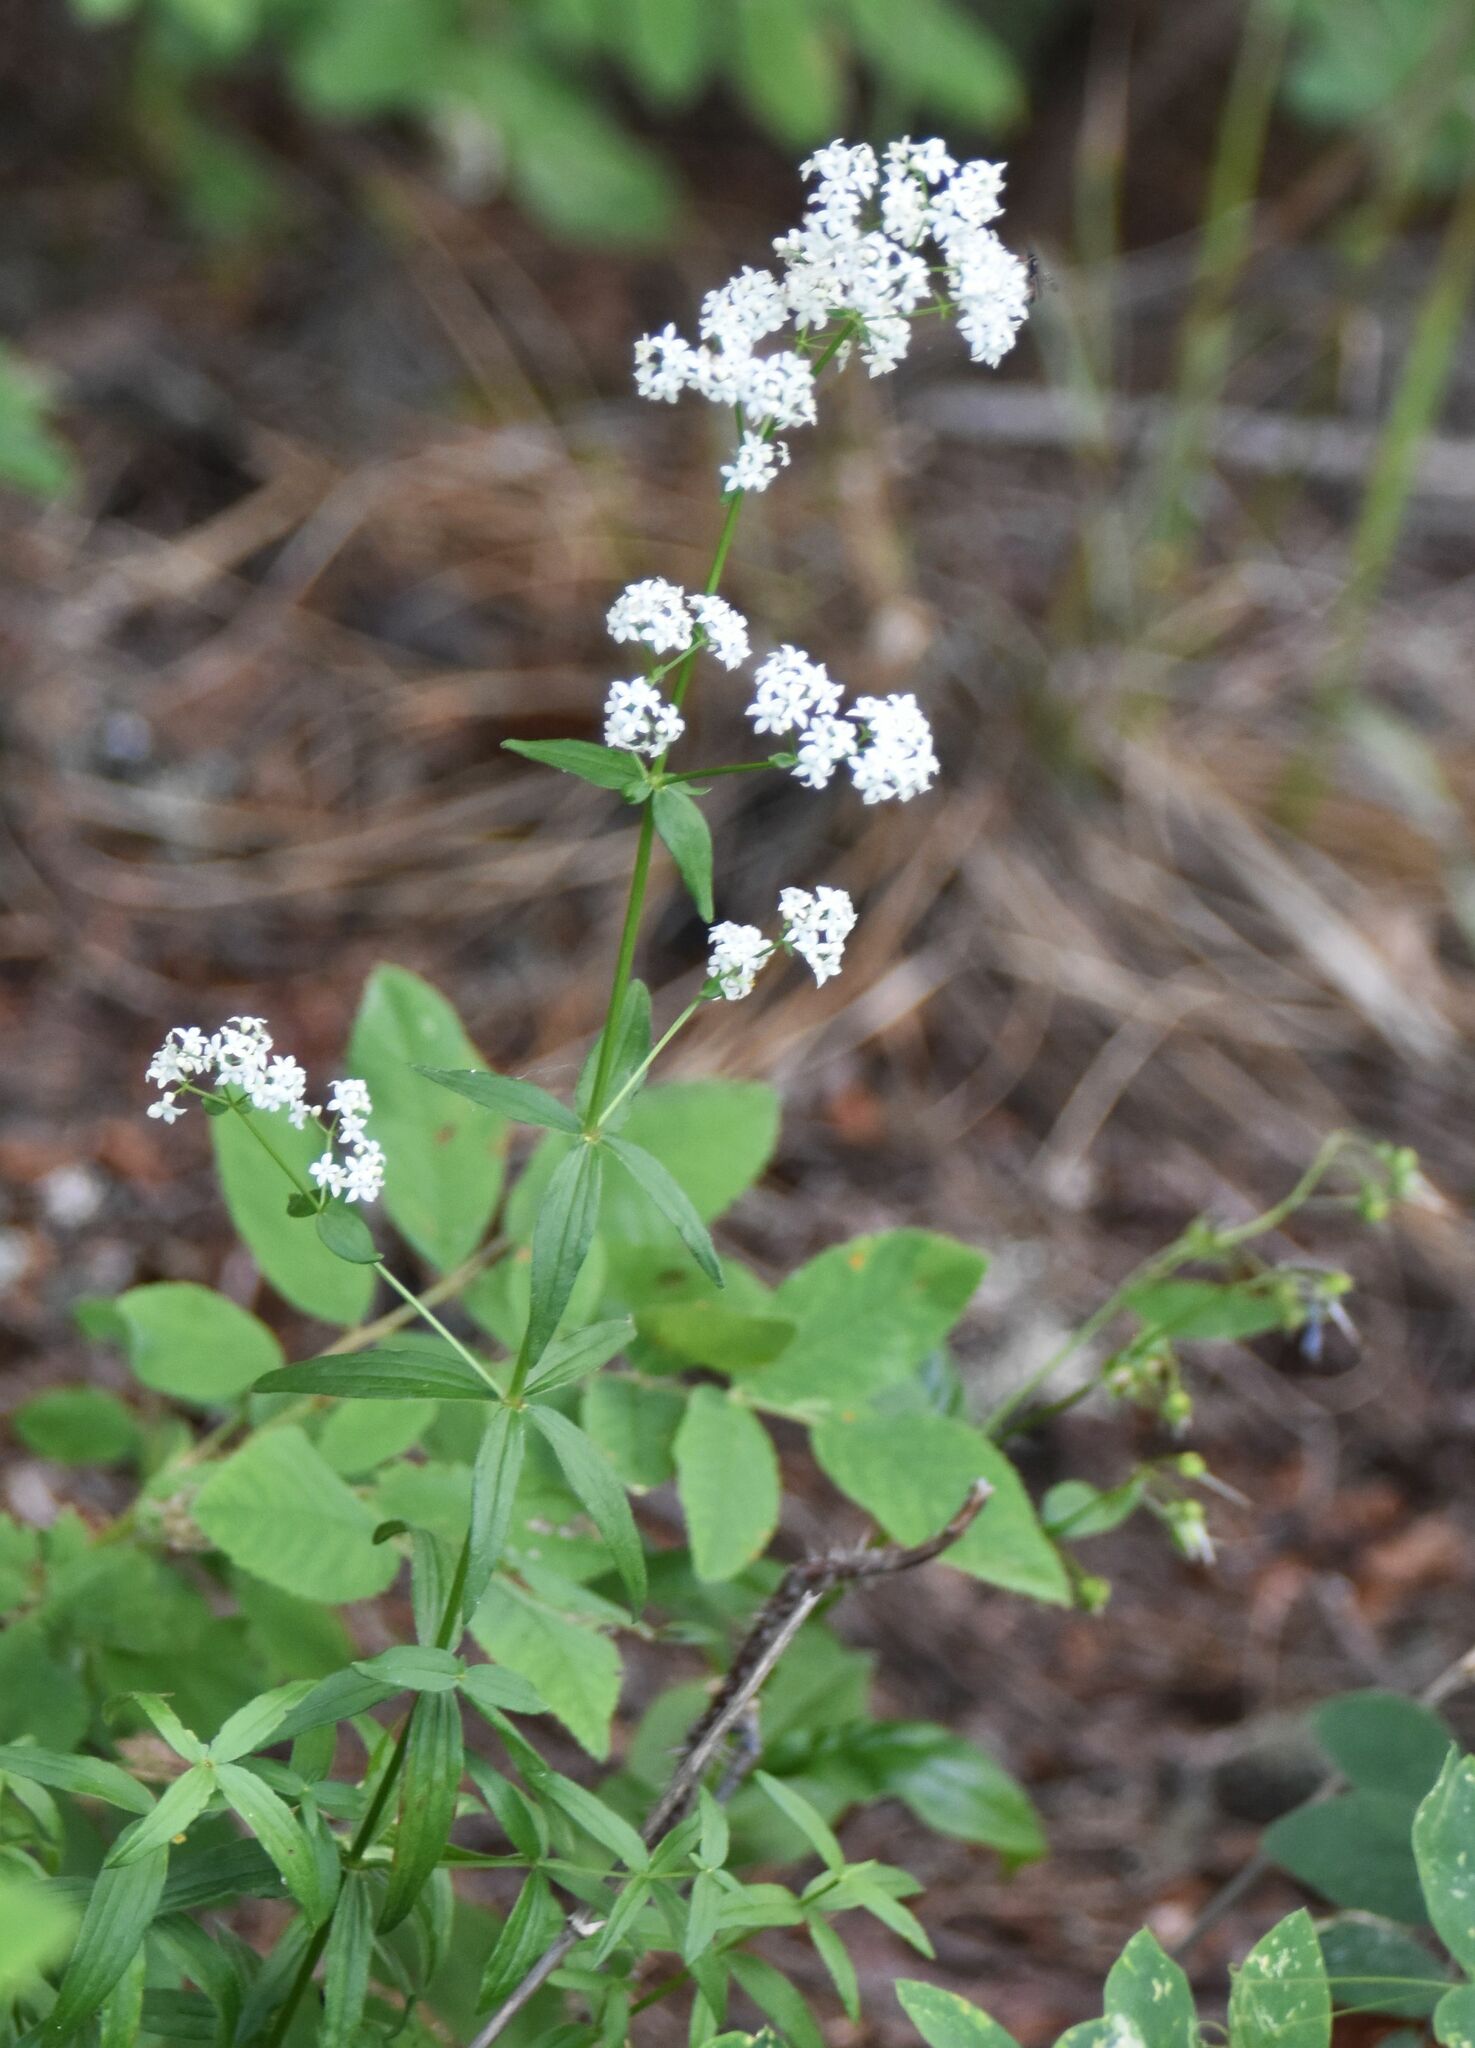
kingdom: Plantae
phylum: Tracheophyta
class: Magnoliopsida
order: Gentianales
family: Rubiaceae
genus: Galium
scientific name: Galium boreale
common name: Northern bedstraw
